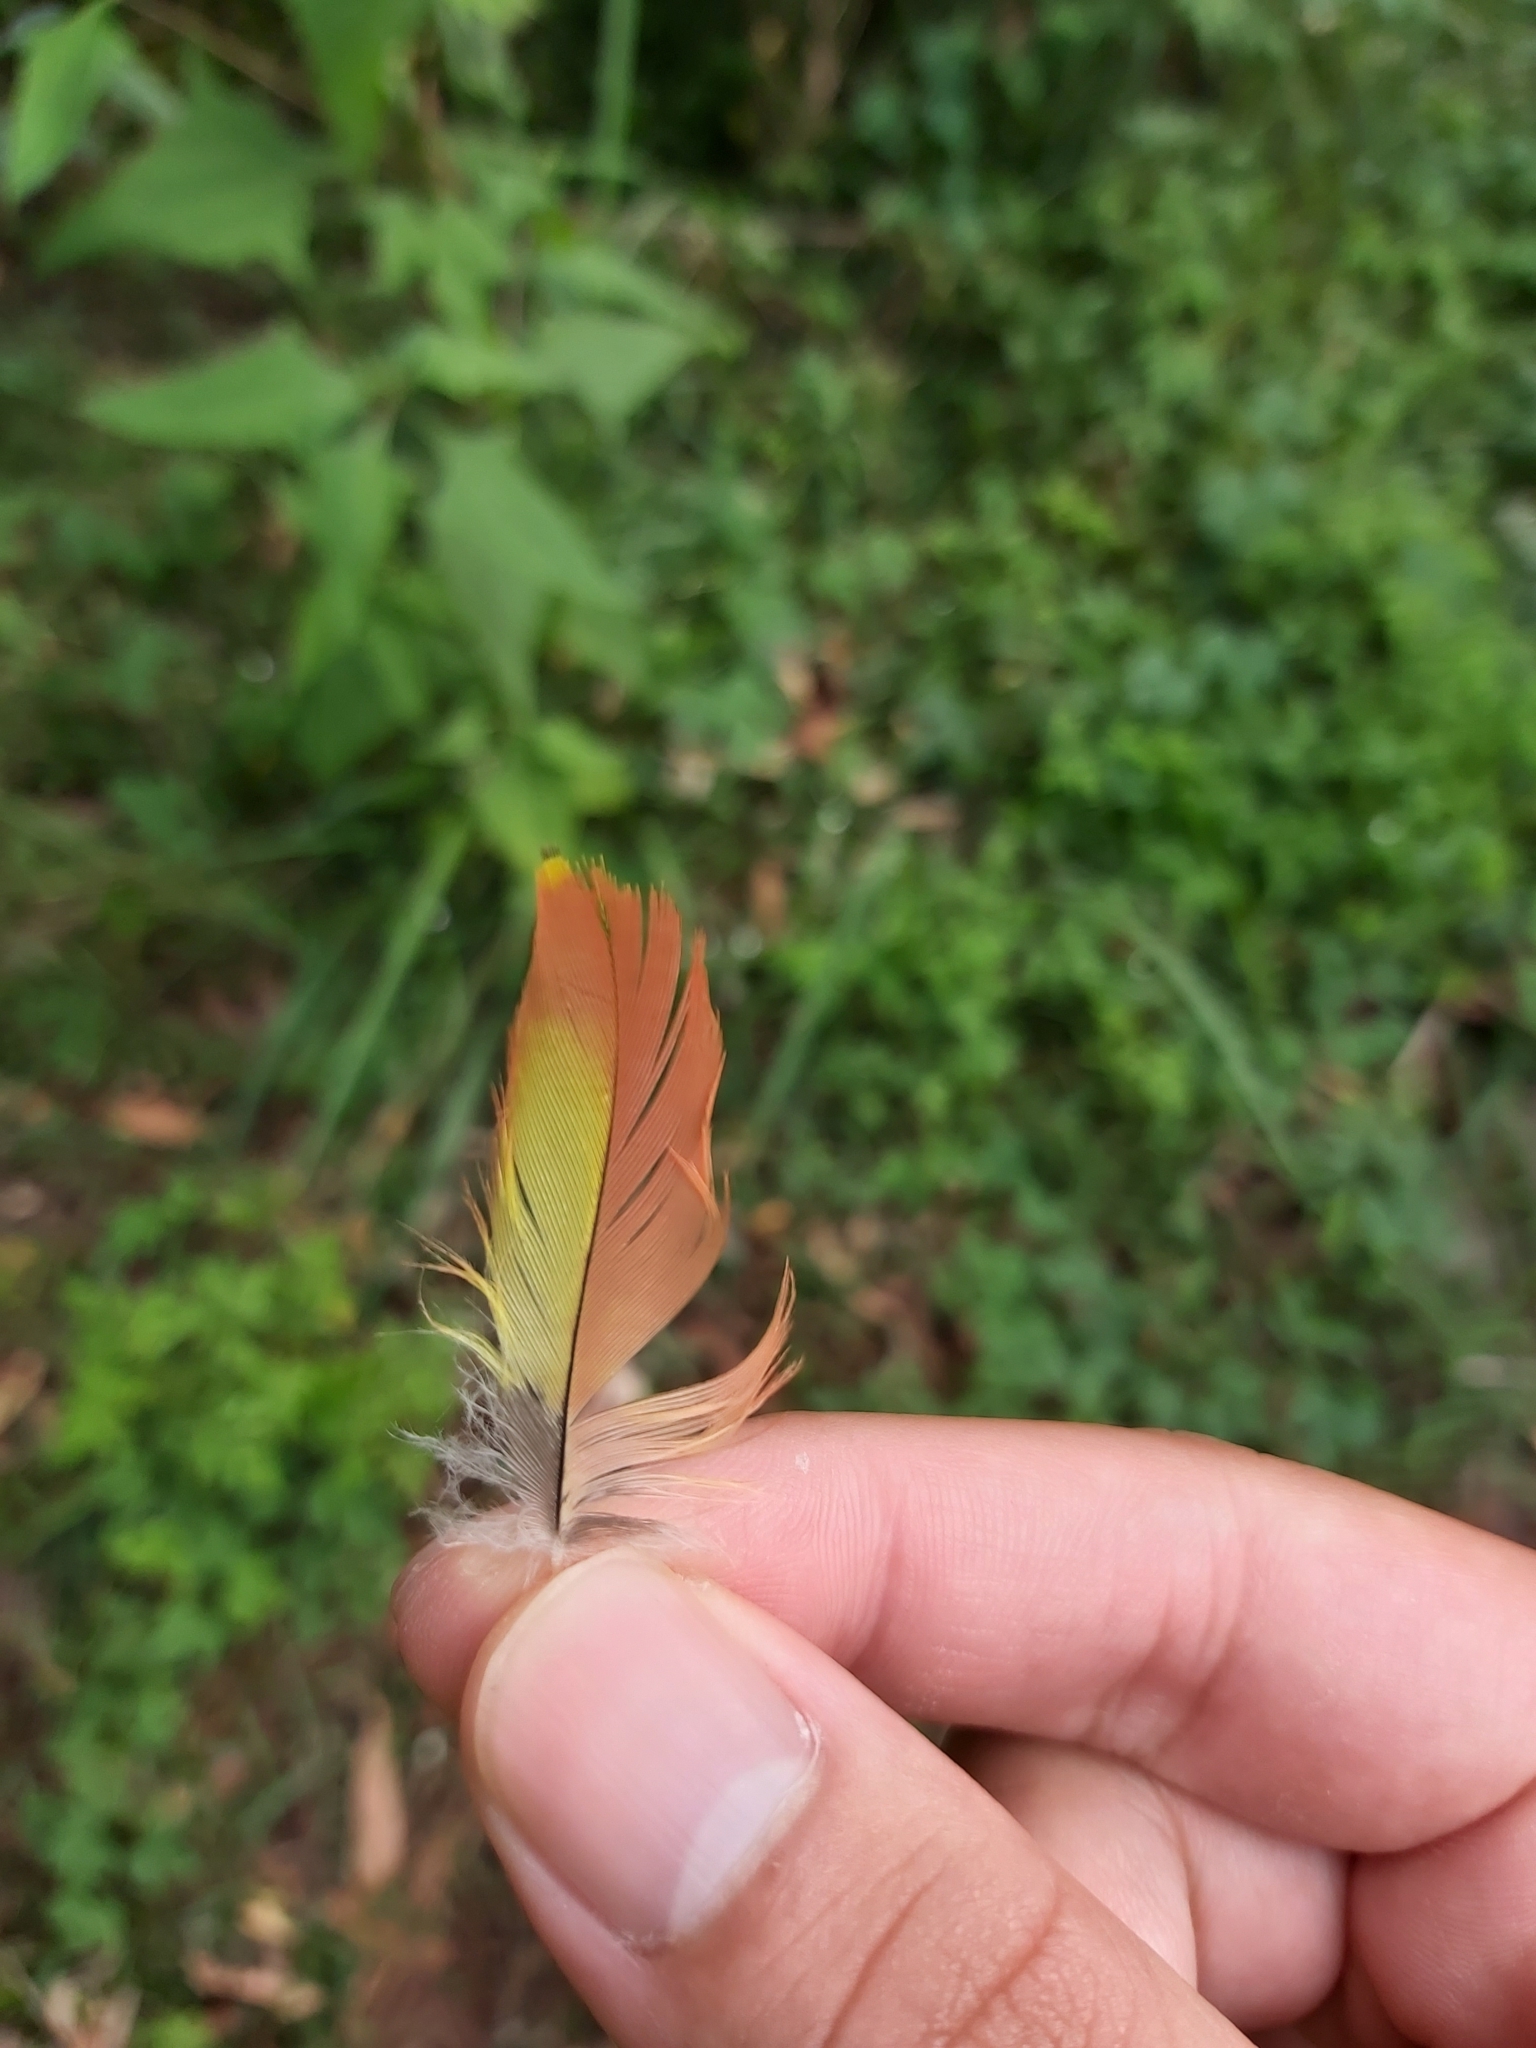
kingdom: Animalia
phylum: Chordata
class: Aves
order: Psittaciformes
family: Psittacidae
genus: Trichoglossus
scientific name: Trichoglossus haematodus
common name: Coconut lorikeet
